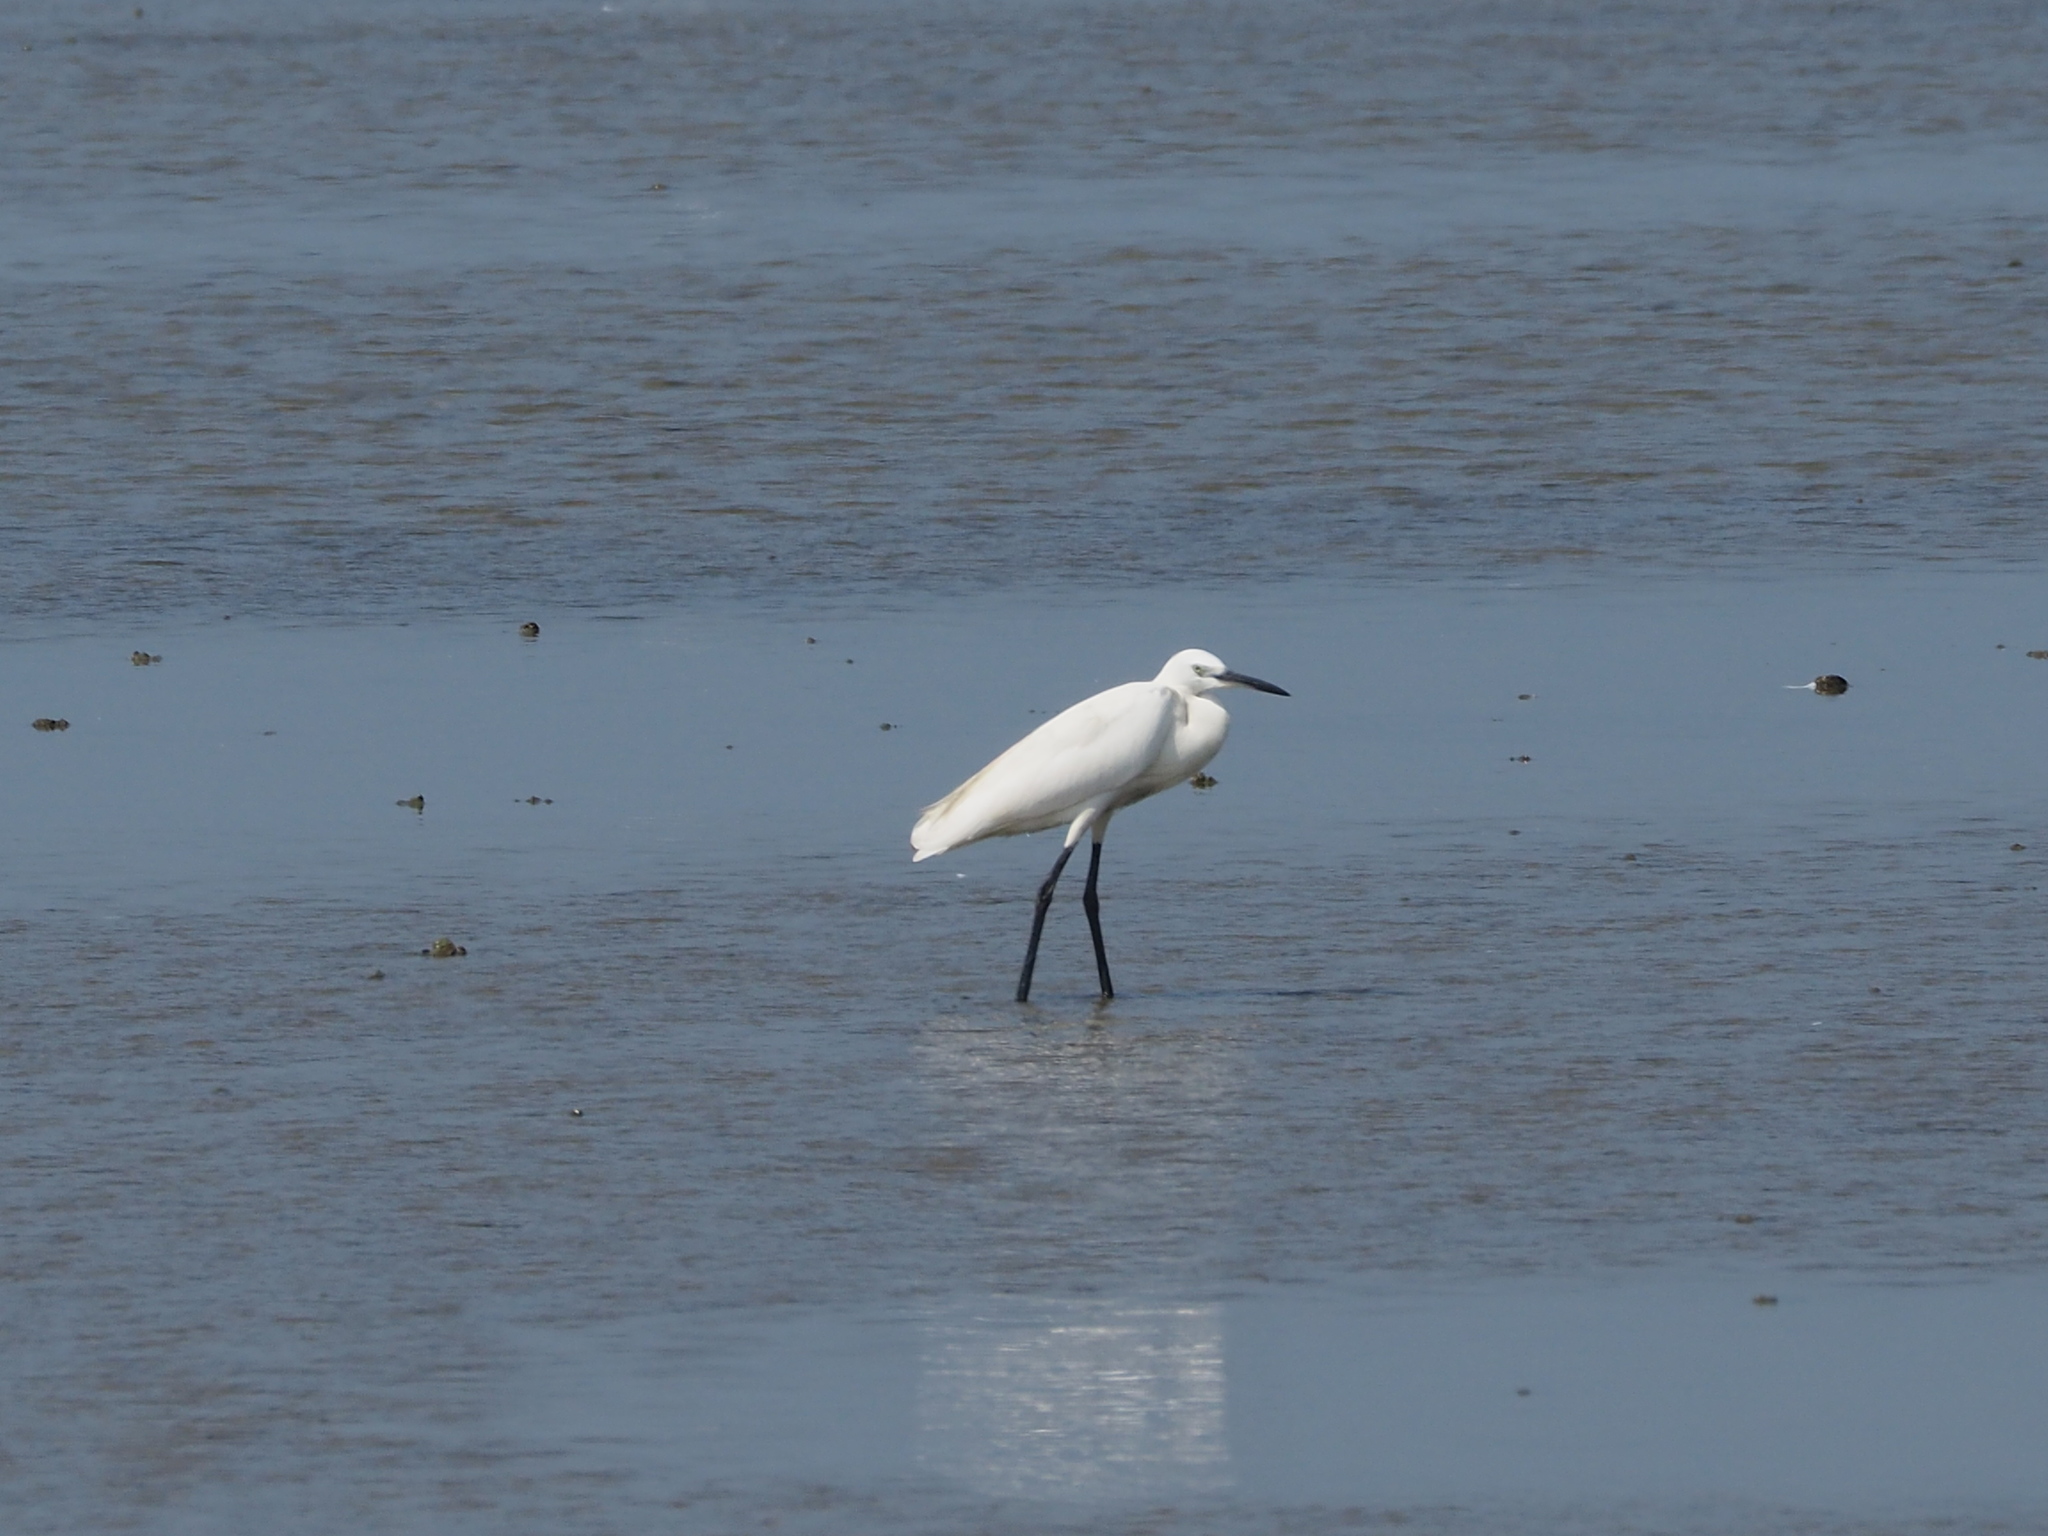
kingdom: Animalia
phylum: Chordata
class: Aves
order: Pelecaniformes
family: Ardeidae
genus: Egretta
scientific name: Egretta garzetta
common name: Little egret
